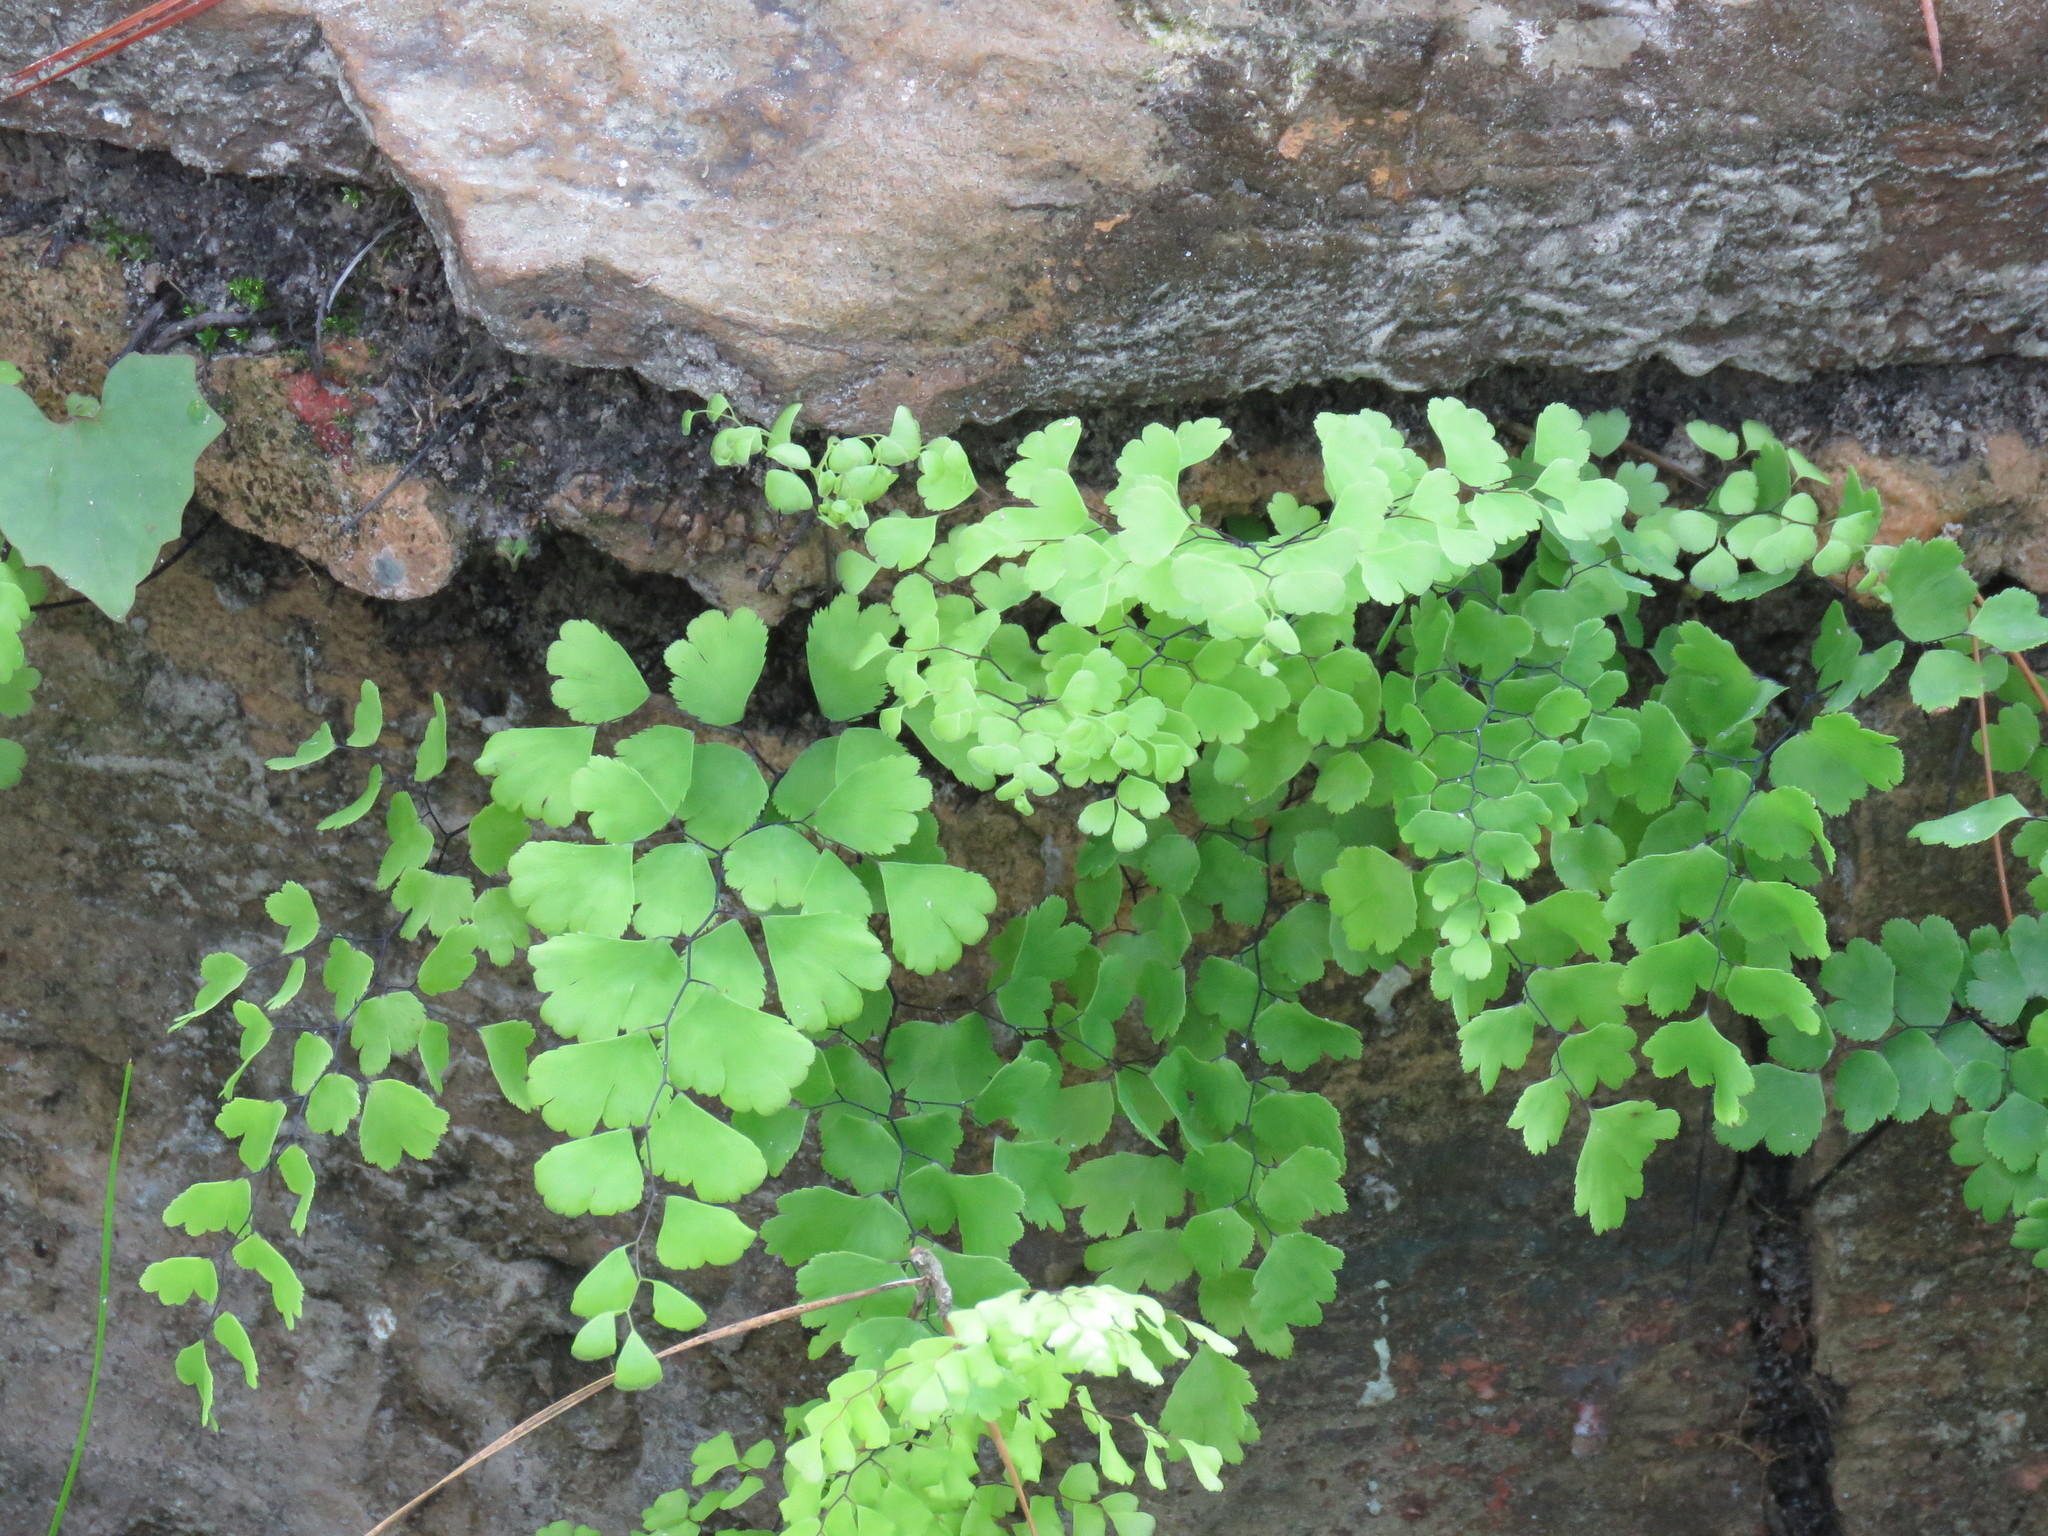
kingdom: Plantae
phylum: Tracheophyta
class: Polypodiopsida
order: Polypodiales
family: Pteridaceae
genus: Adiantum
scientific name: Adiantum capillus-veneris
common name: Maidenhair fern
